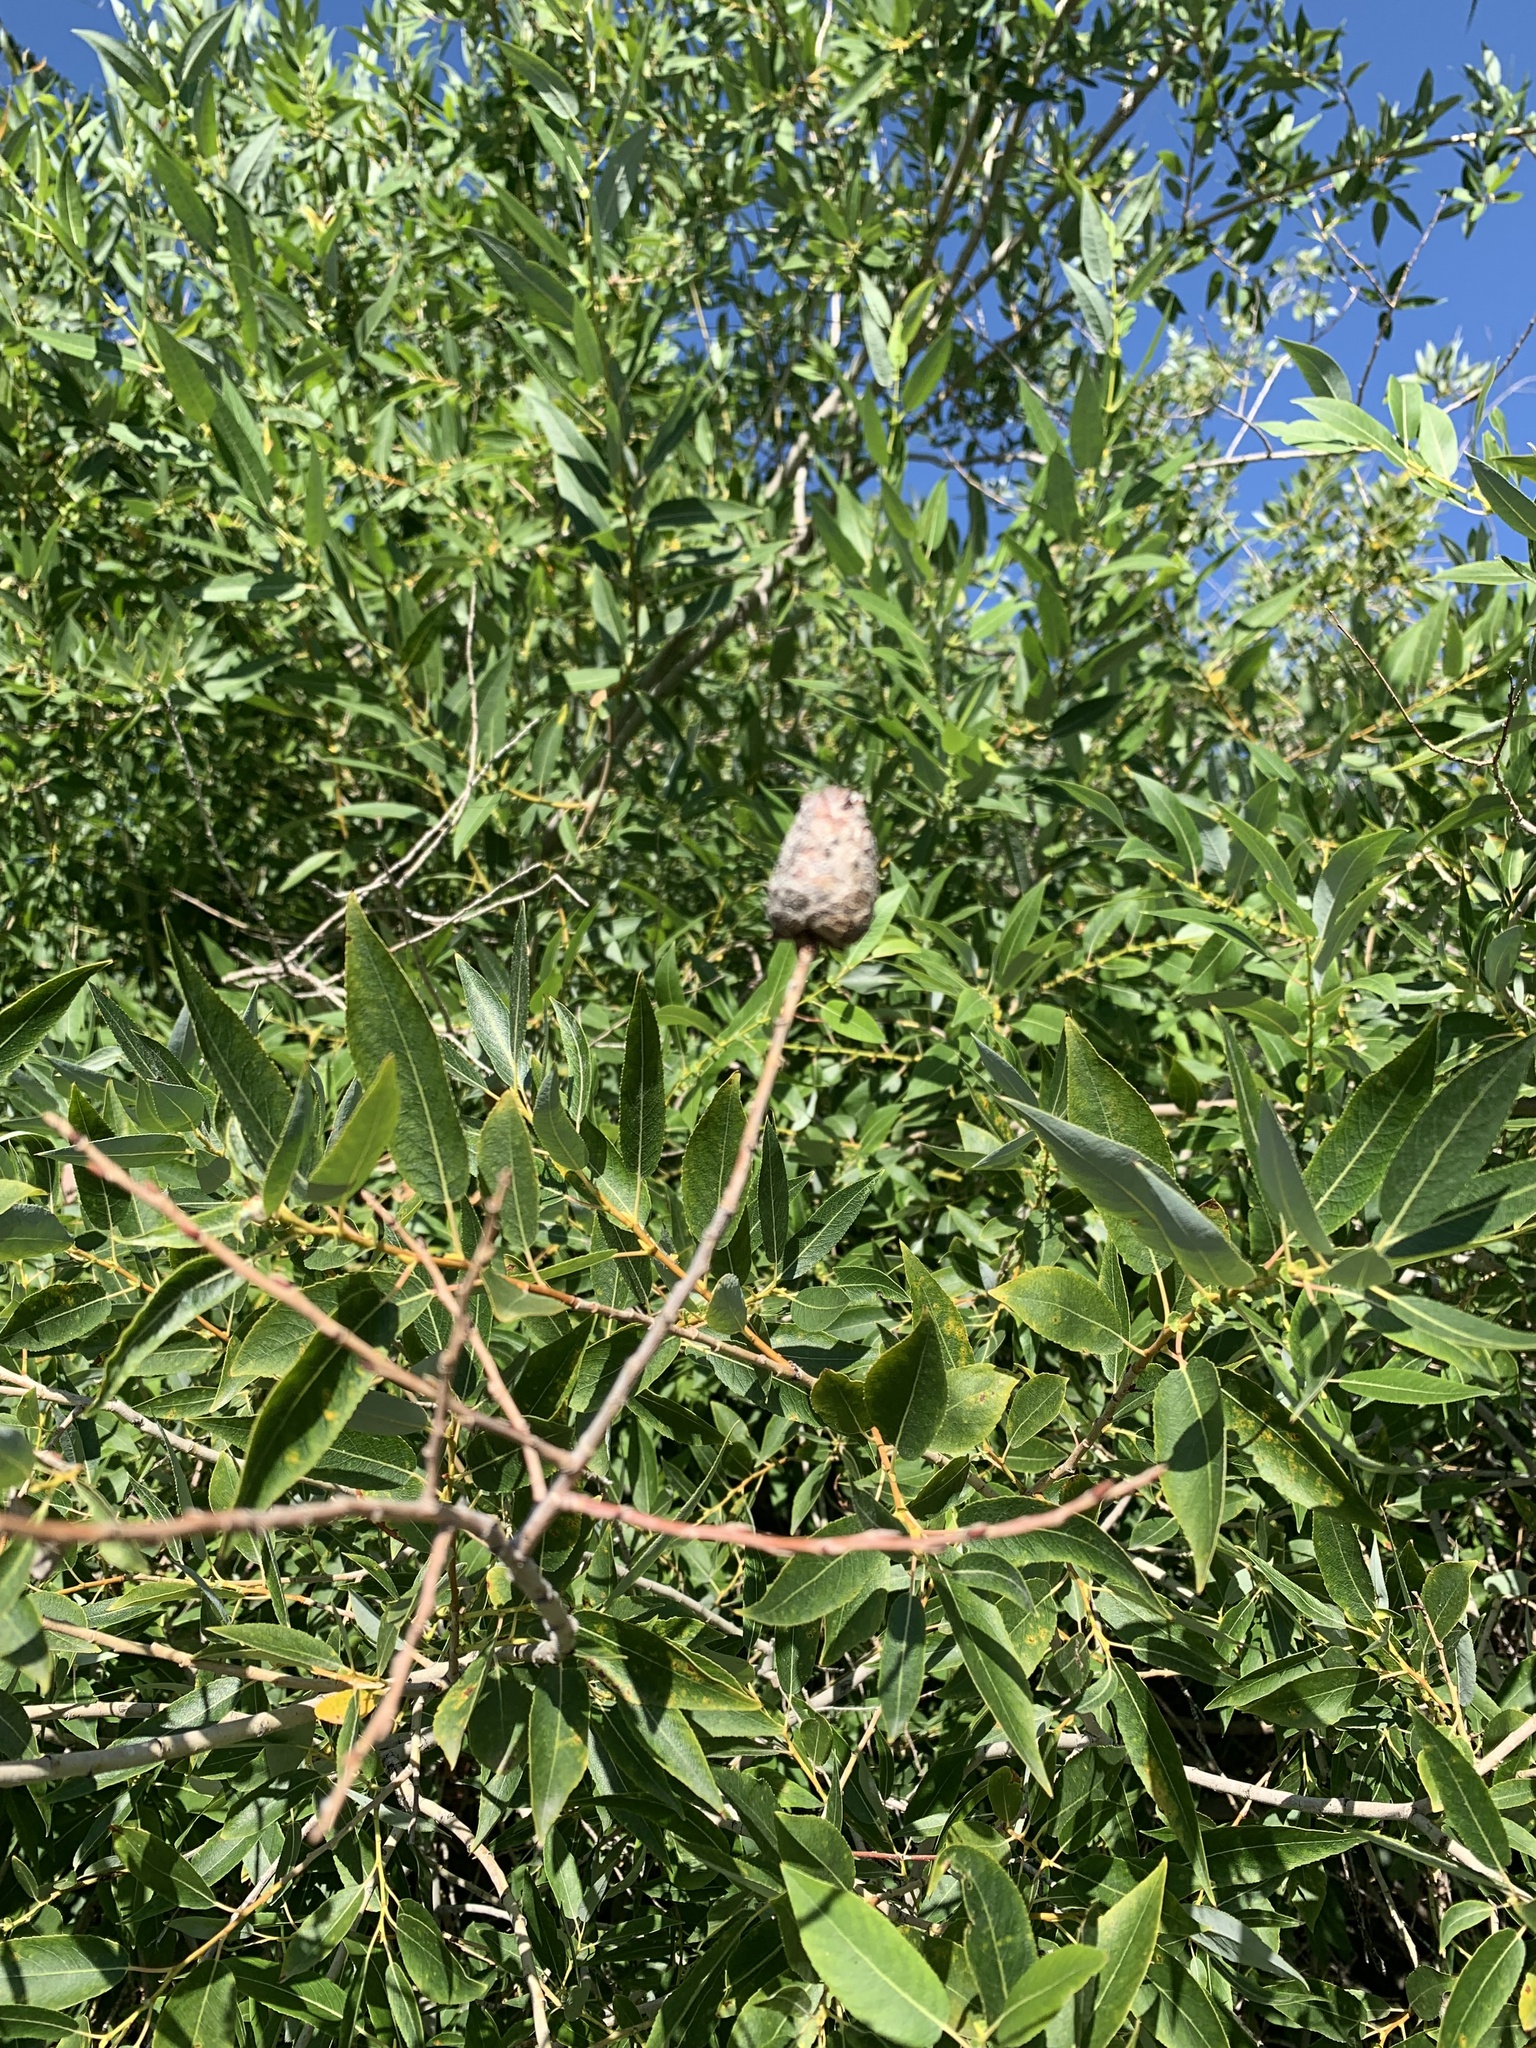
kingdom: Animalia
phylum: Arthropoda
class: Insecta
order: Diptera
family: Cecidomyiidae
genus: Rabdophaga
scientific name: Rabdophaga strobiloides
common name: Willow pinecone gall midge
